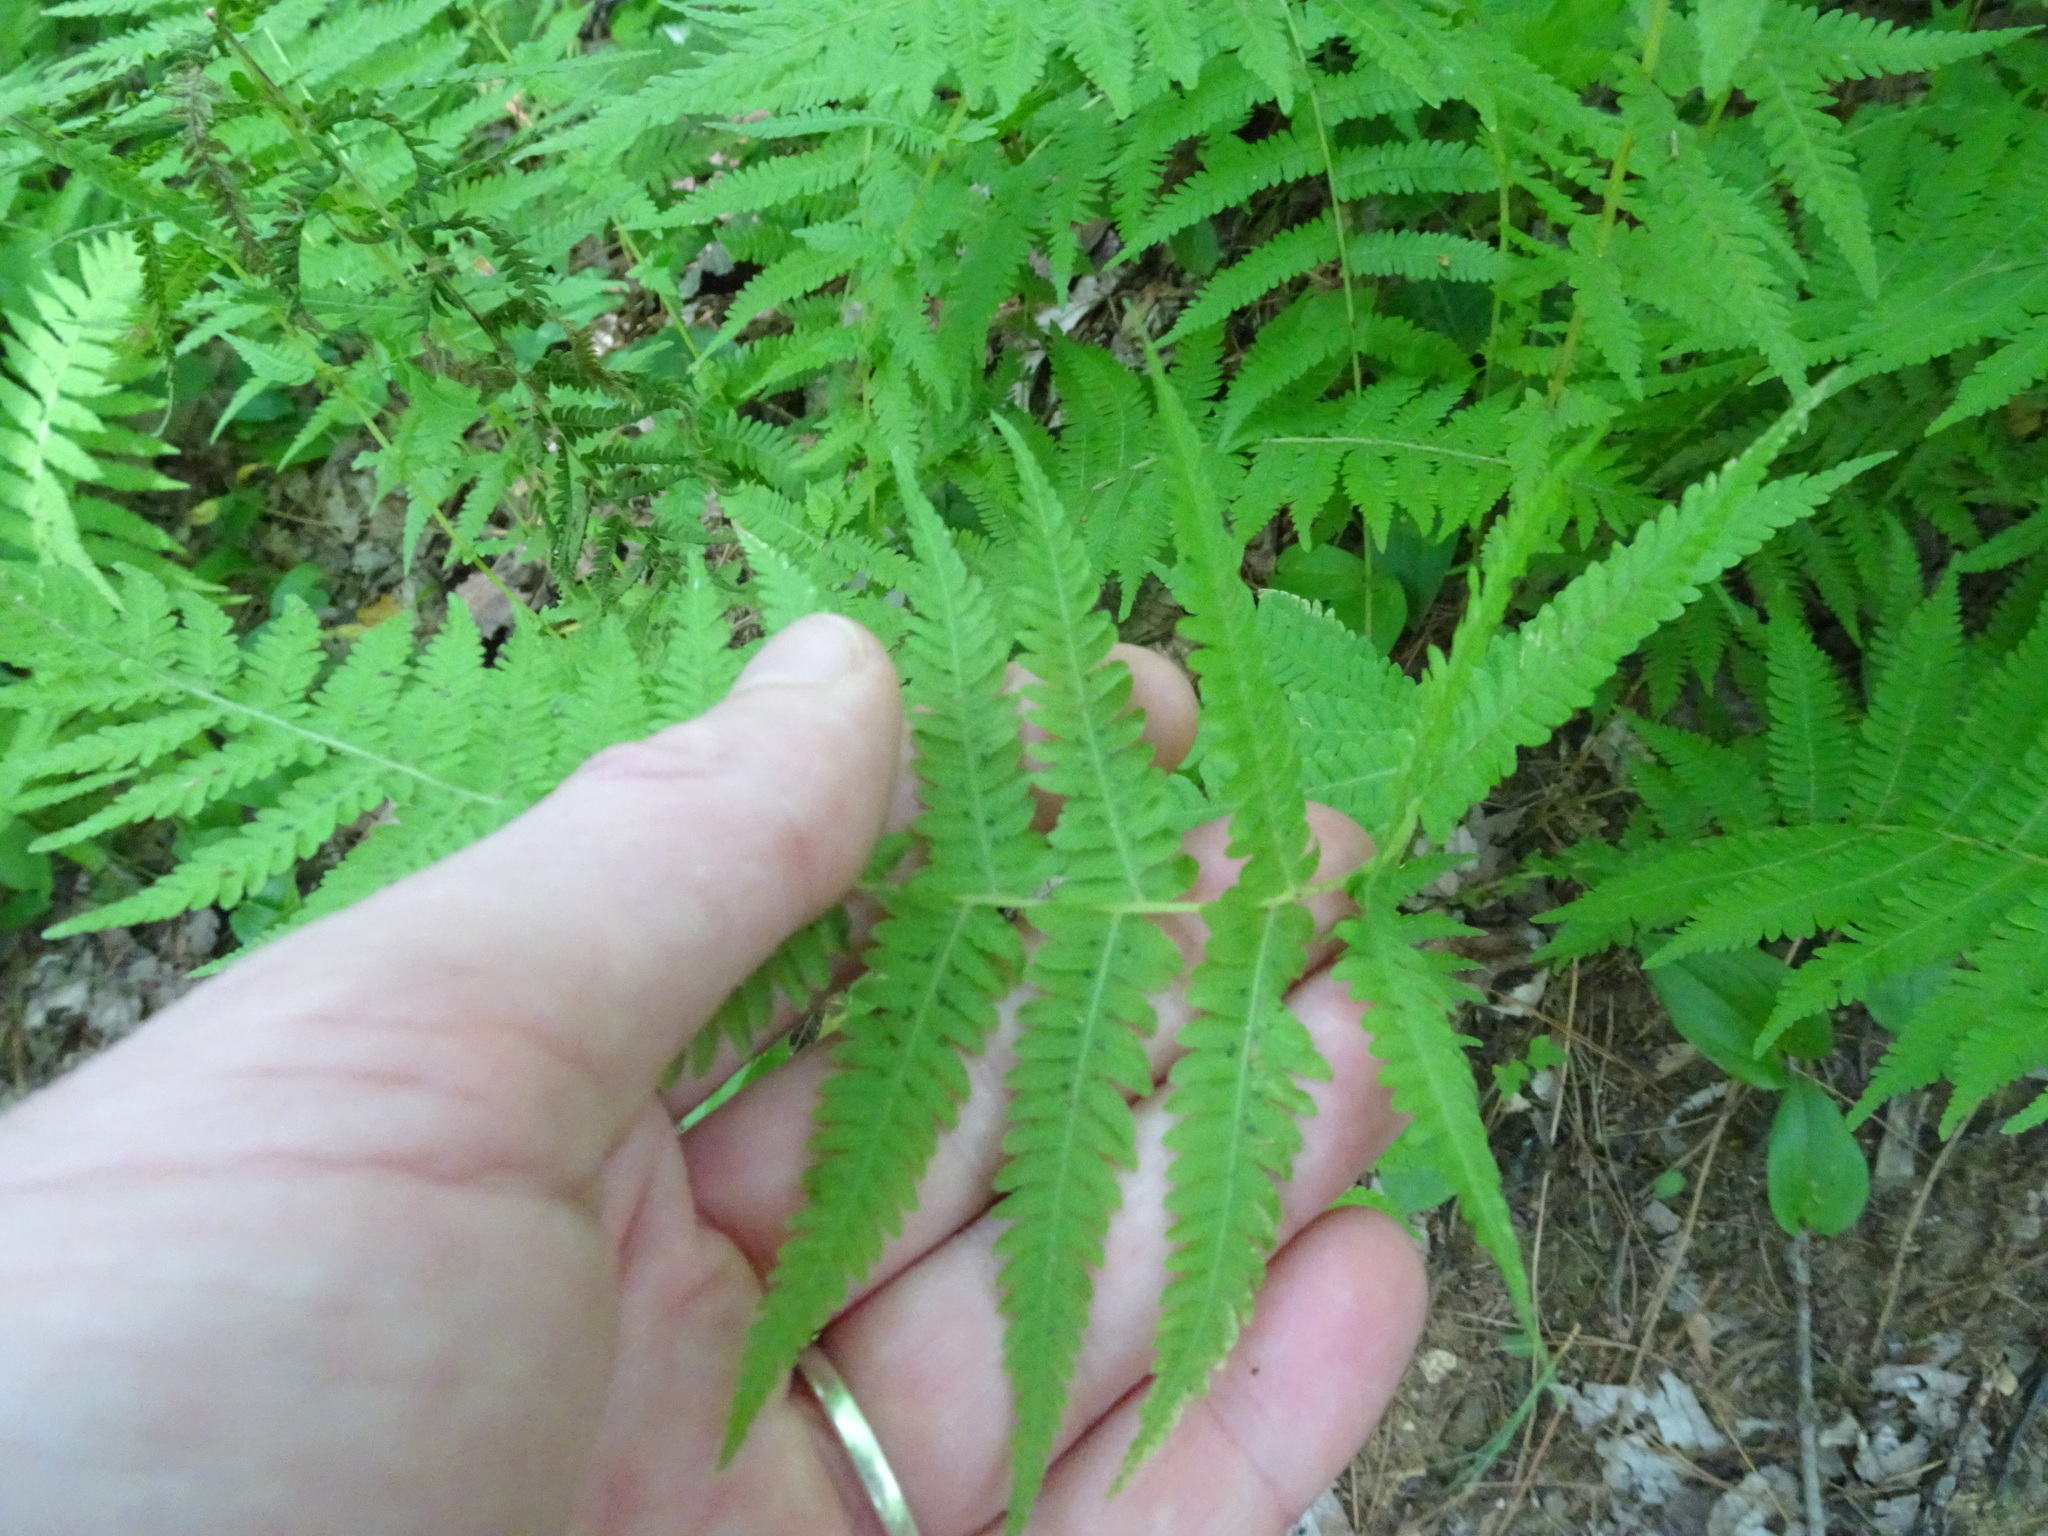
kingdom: Plantae
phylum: Tracheophyta
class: Polypodiopsida
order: Polypodiales
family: Thelypteridaceae
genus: Amauropelta
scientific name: Amauropelta noveboracensis
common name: New york fern
